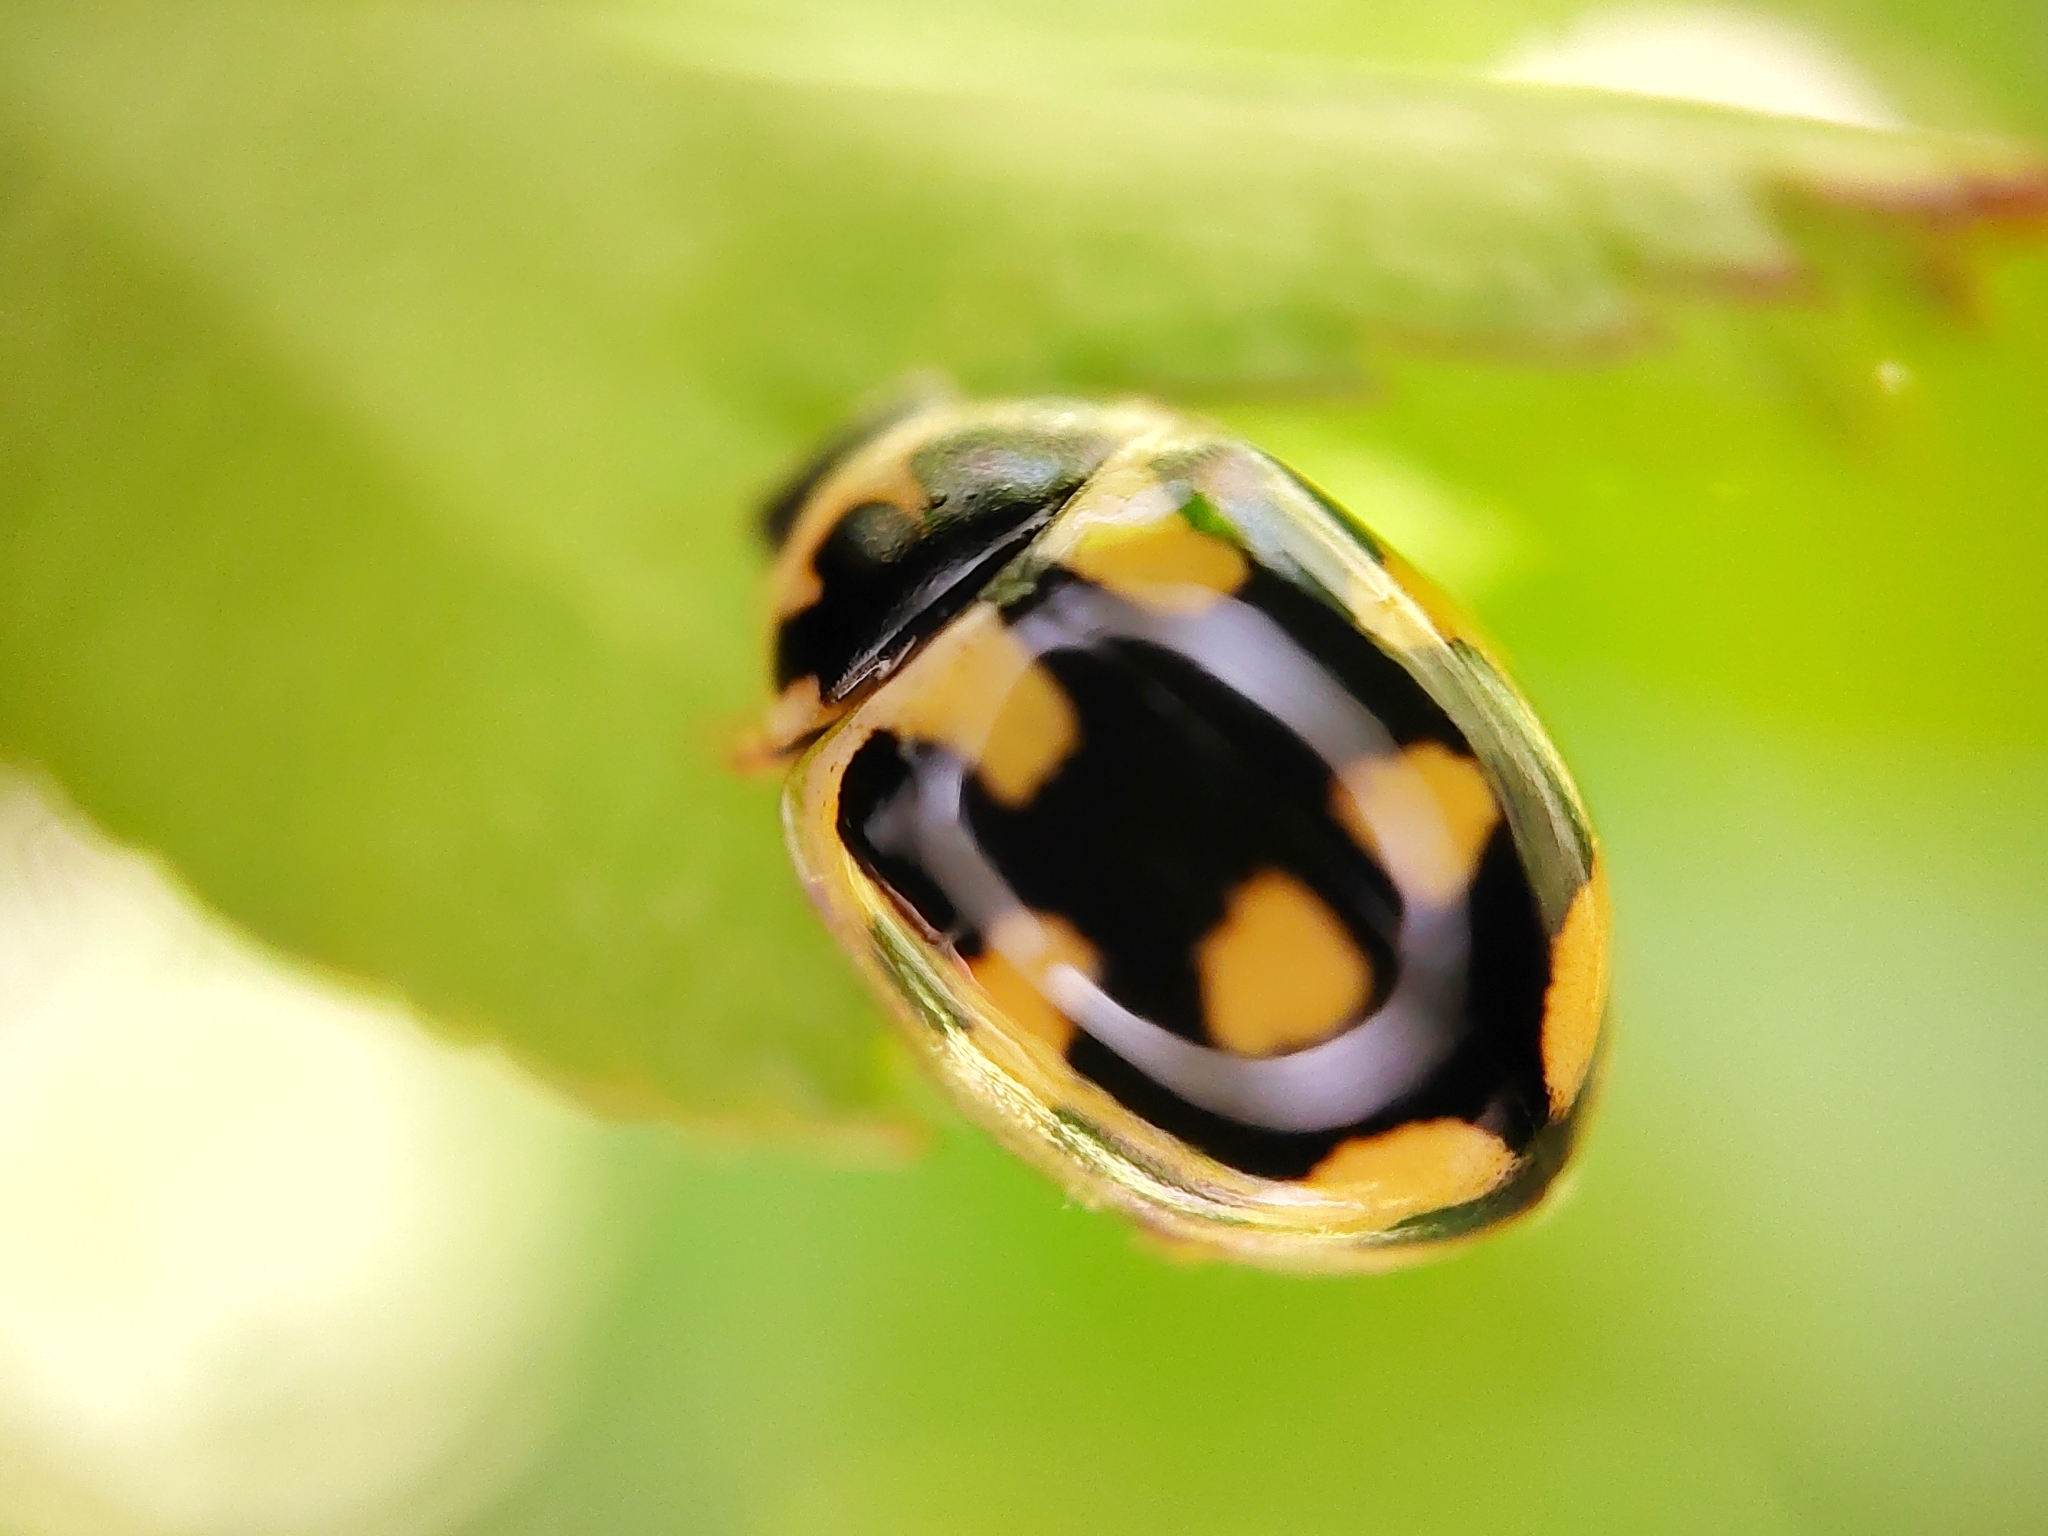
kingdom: Animalia
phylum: Arthropoda
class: Insecta
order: Coleoptera
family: Coccinellidae
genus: Propylaea
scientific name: Propylaea quatuordecimpunctata
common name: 14-spotted ladybird beetle
